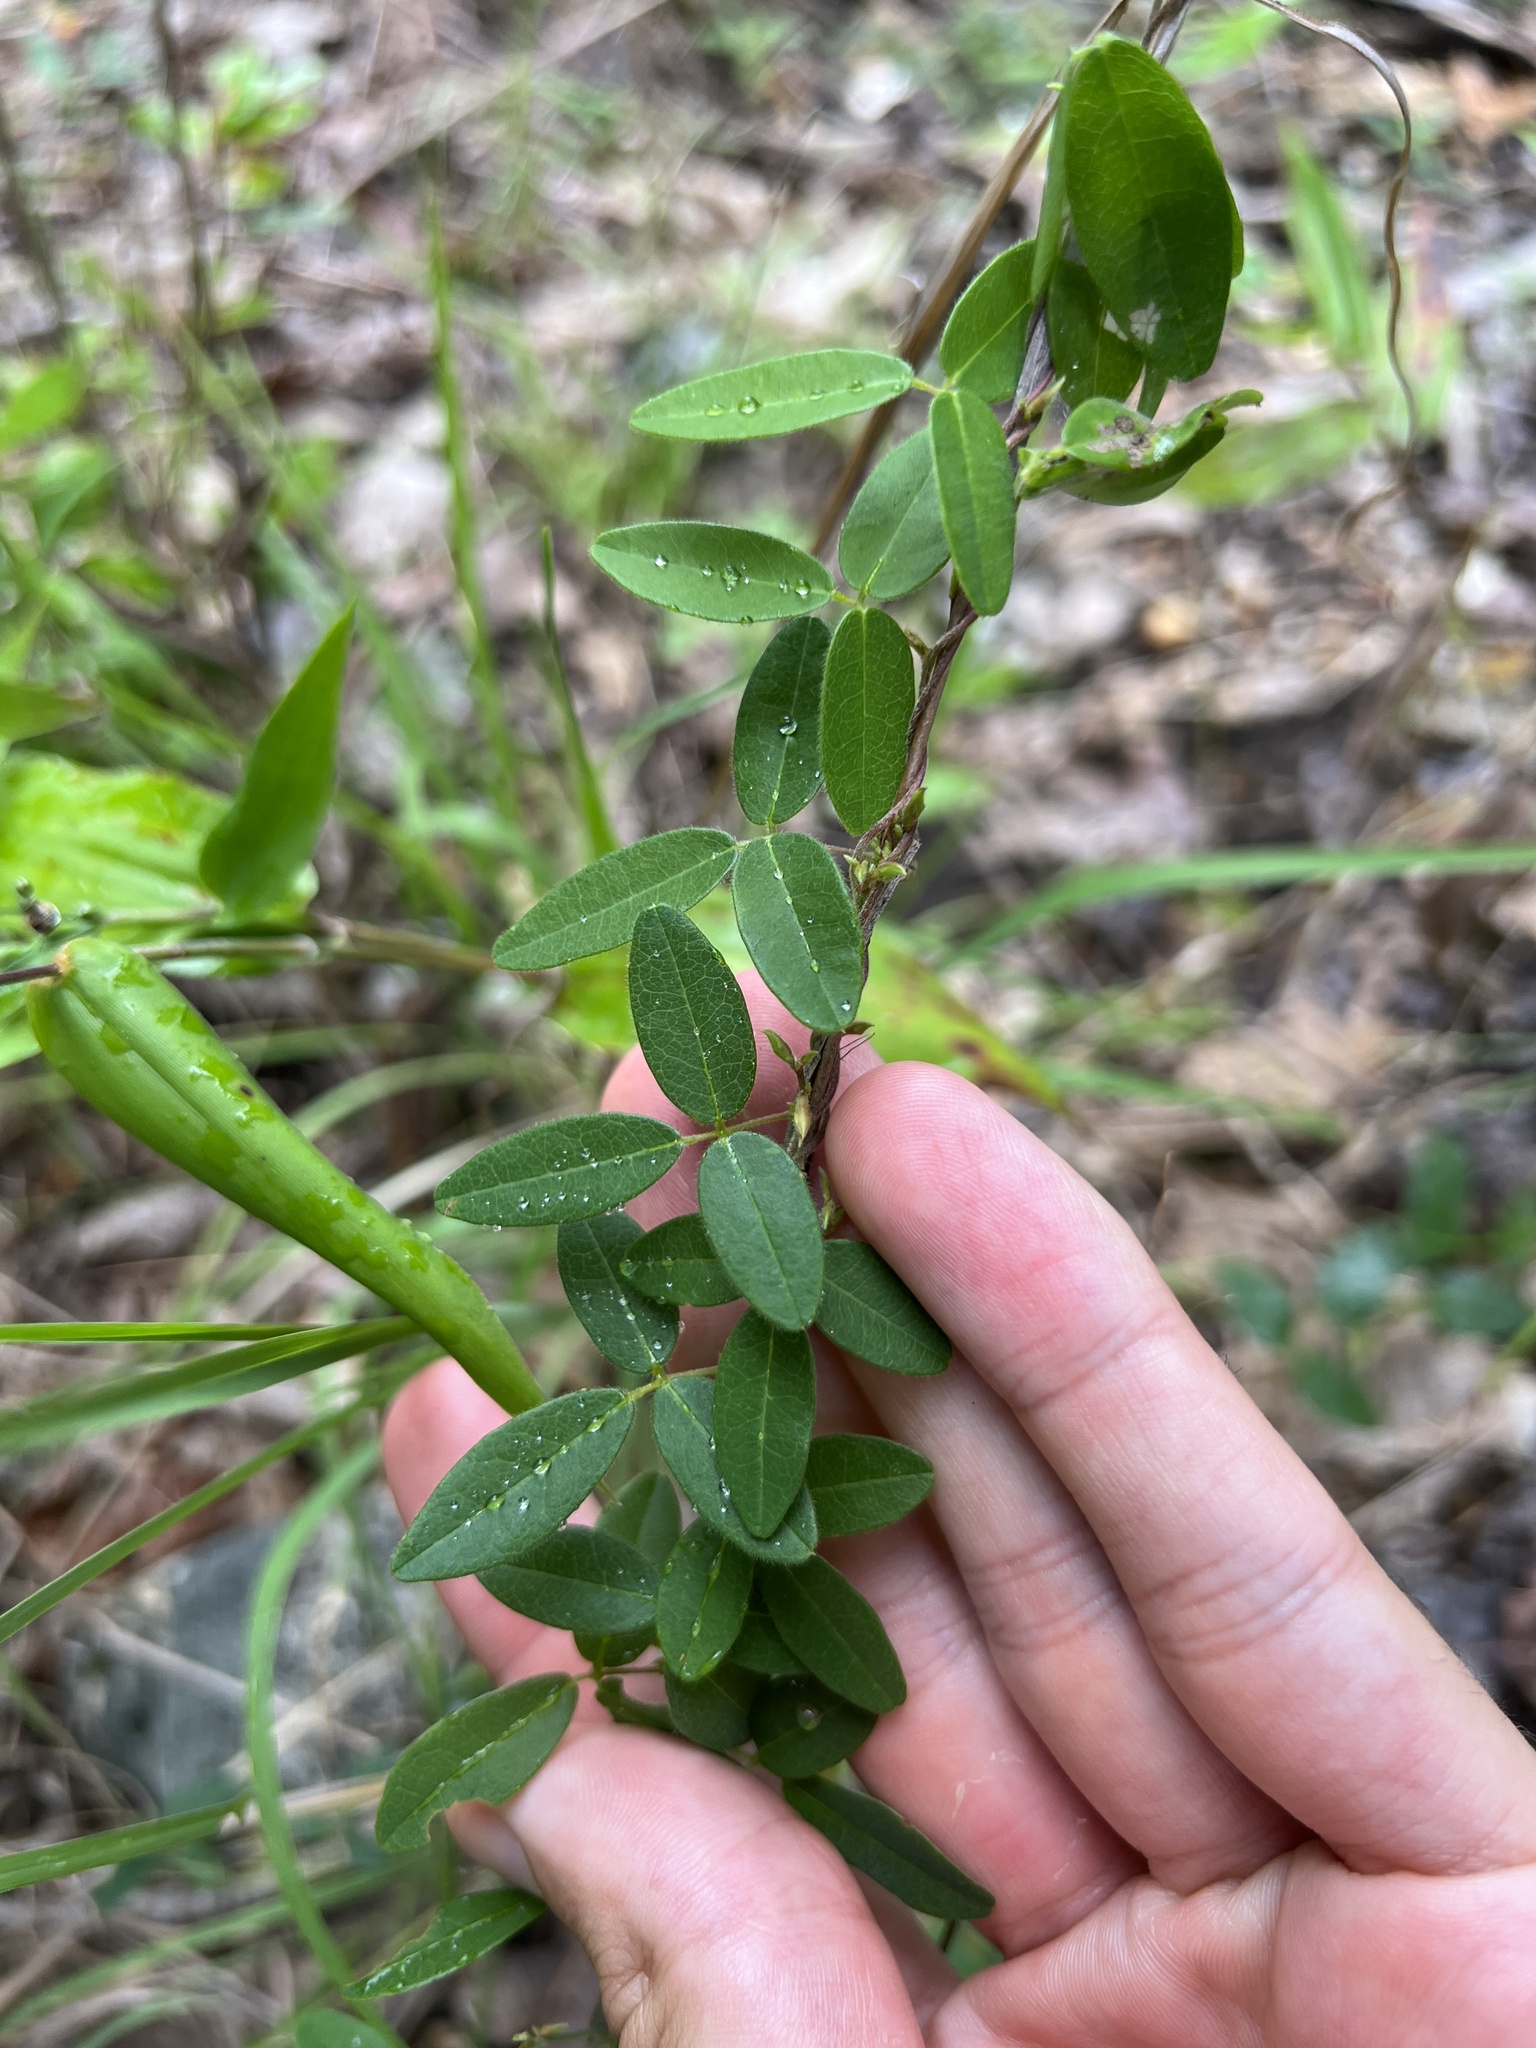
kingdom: Plantae
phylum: Tracheophyta
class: Magnoliopsida
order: Fabales
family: Fabaceae
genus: Galactia
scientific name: Galactia regularis
